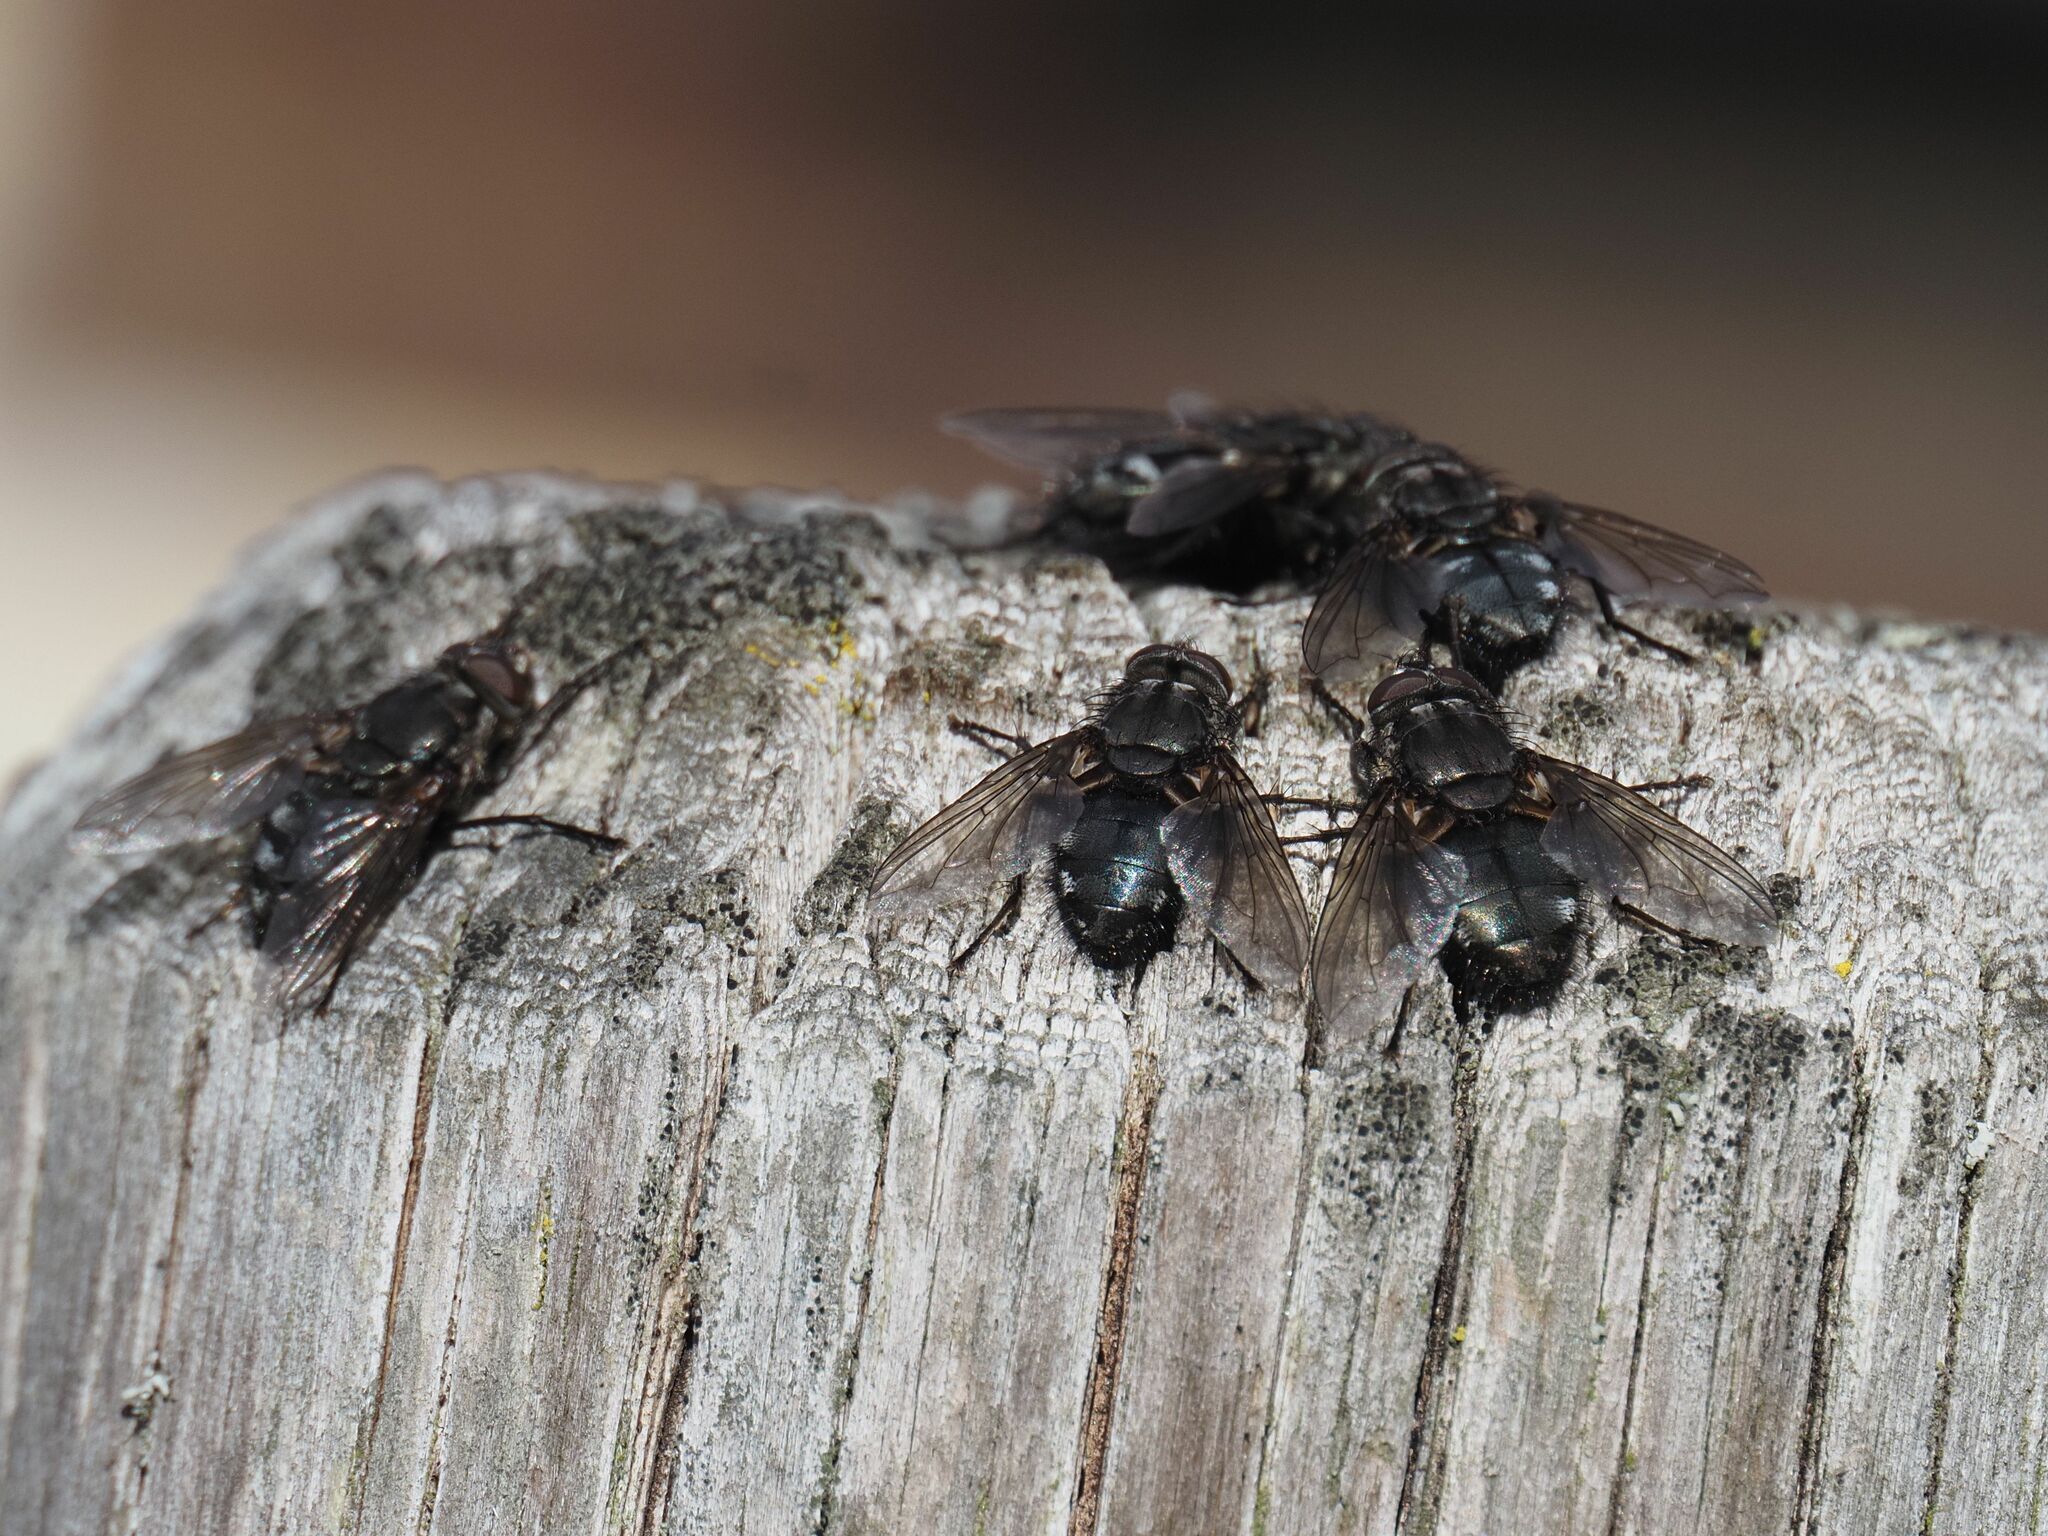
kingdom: Animalia
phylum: Arthropoda
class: Insecta
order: Diptera
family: Polleniidae
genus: Pollenia
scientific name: Pollenia vagabunda
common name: Vagabund cluster fly
